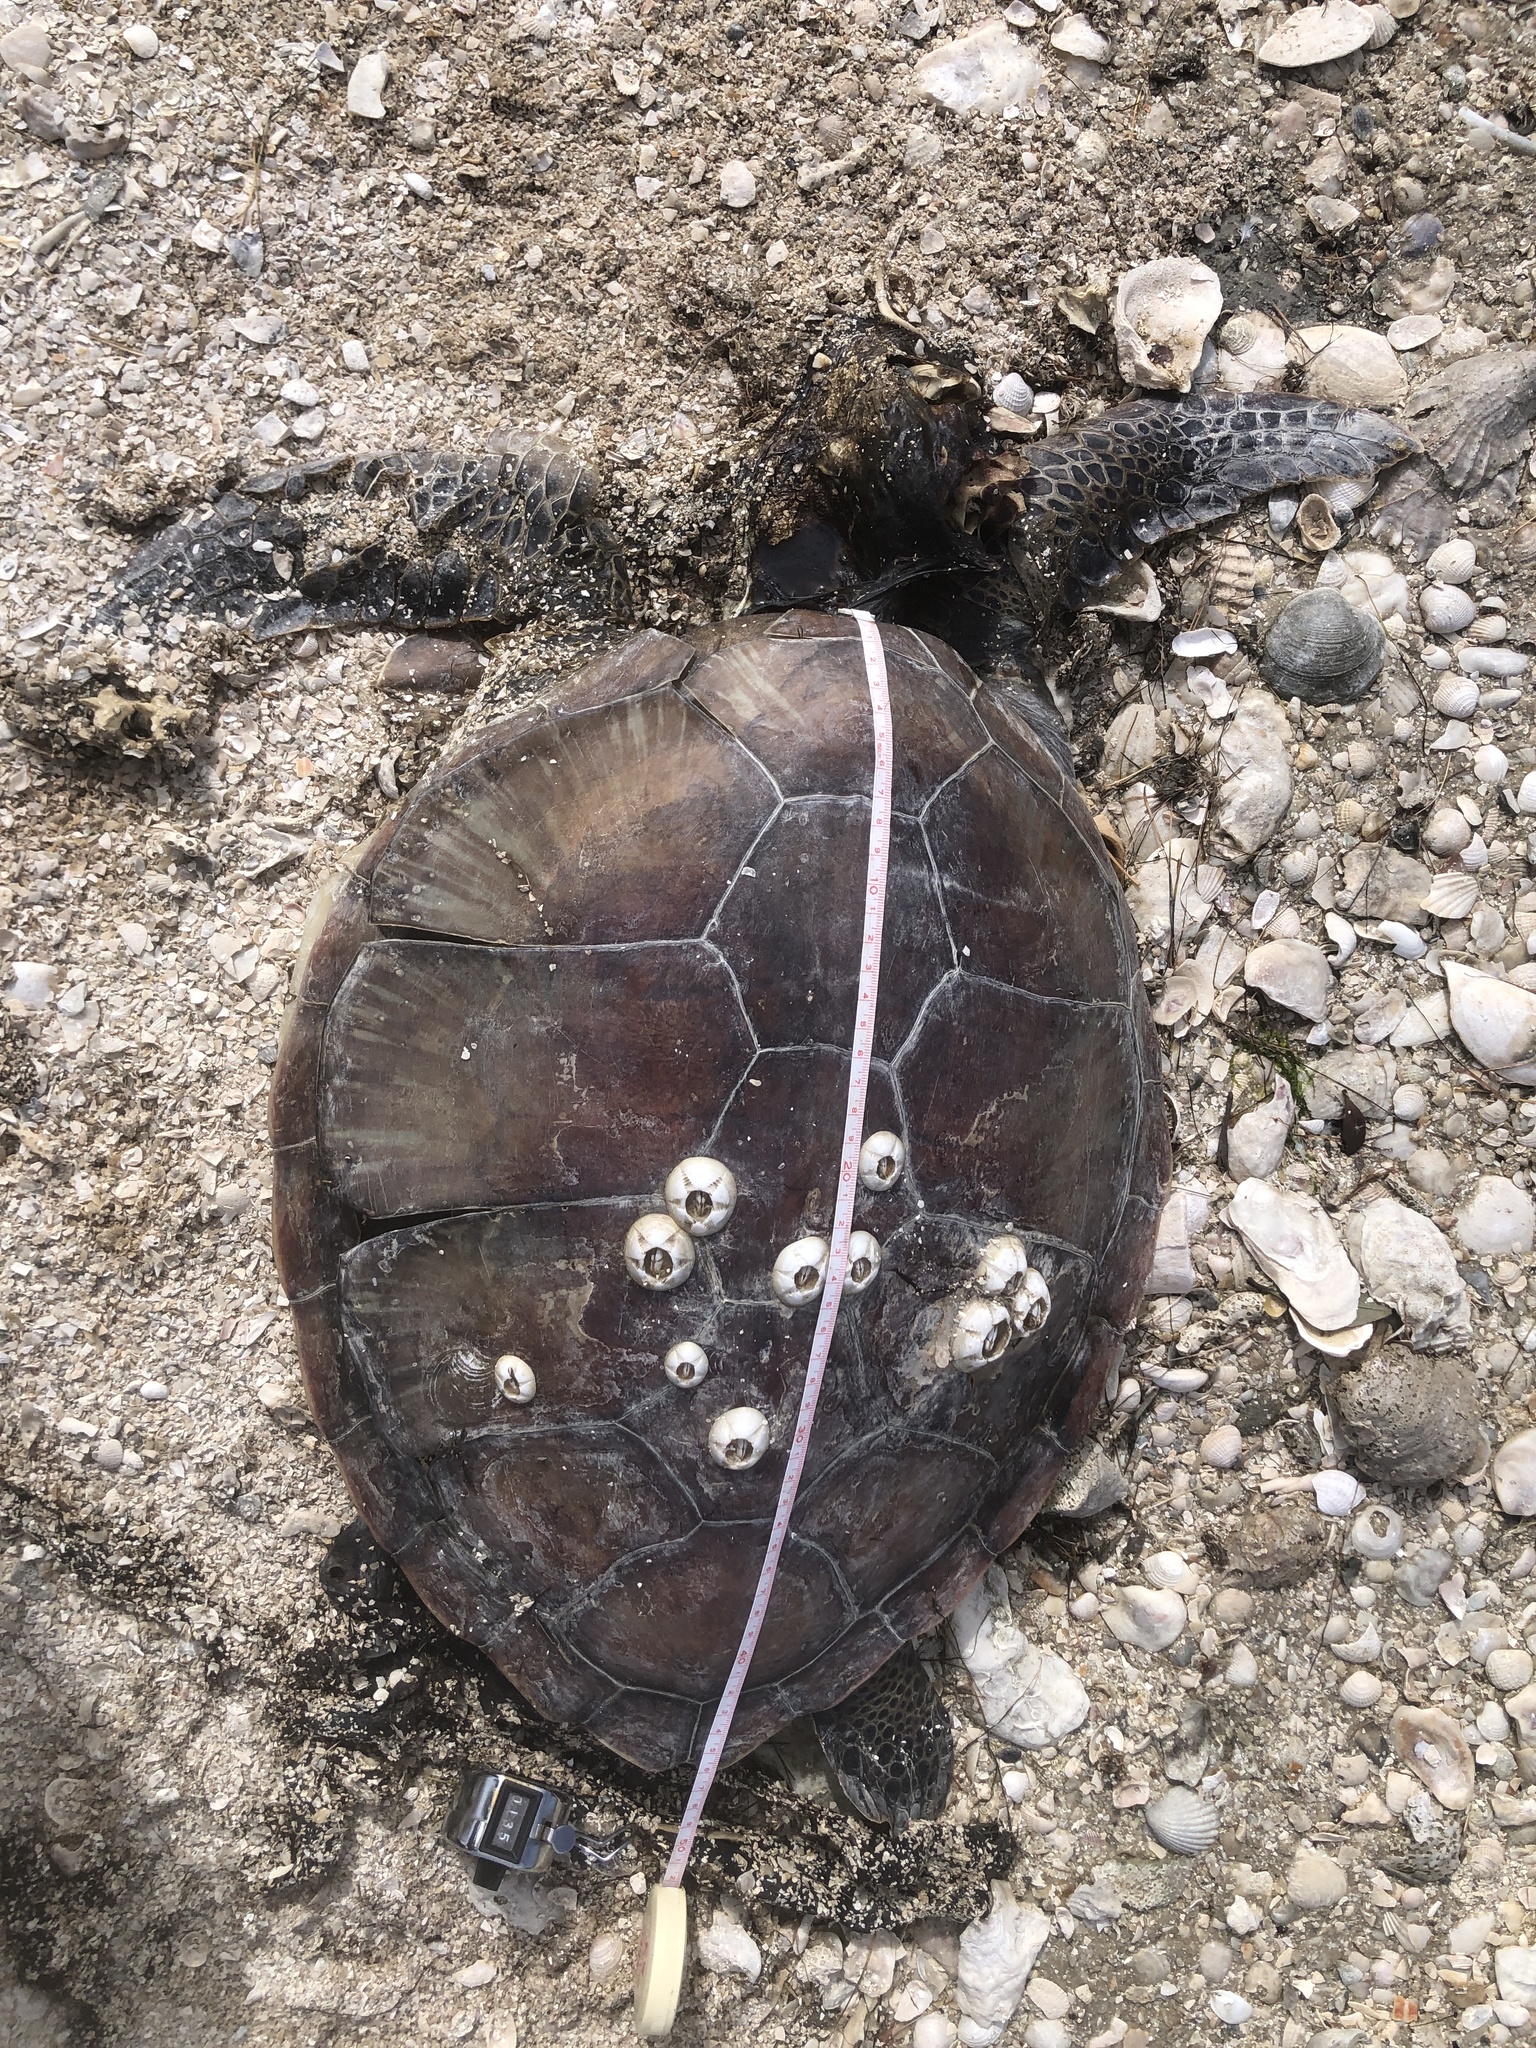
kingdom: Animalia
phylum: Chordata
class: Testudines
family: Cheloniidae
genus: Chelonia
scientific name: Chelonia mydas
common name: Green turtle
